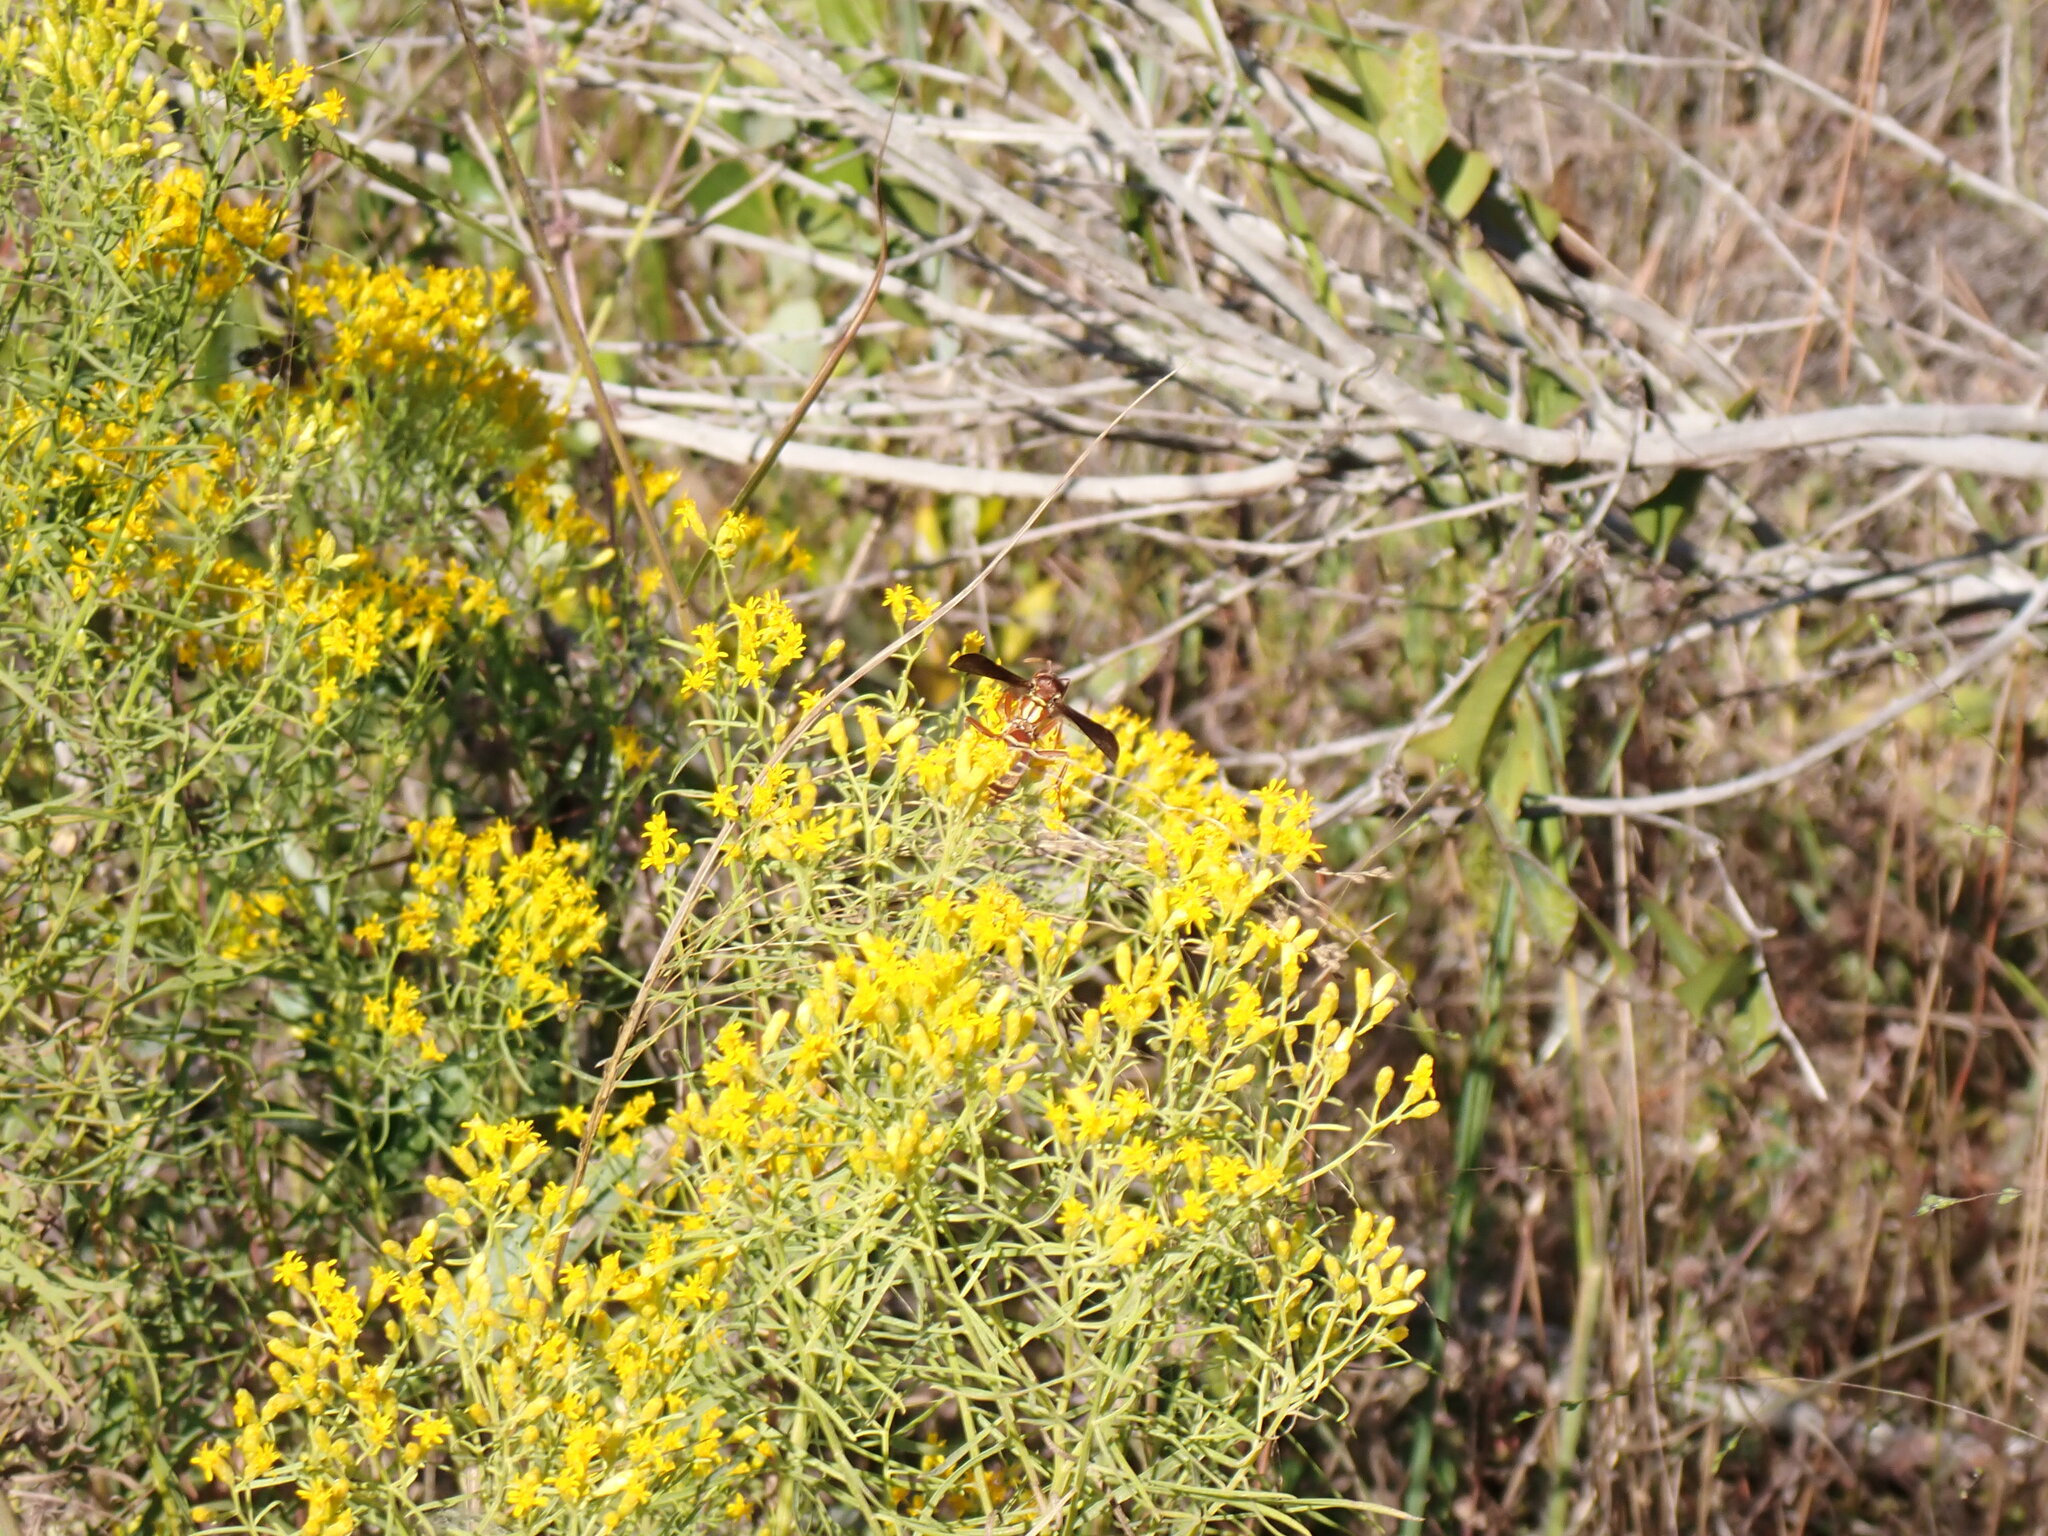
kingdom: Animalia
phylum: Arthropoda
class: Insecta
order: Hymenoptera
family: Eumenidae
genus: Polistes
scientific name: Polistes bellicosus
